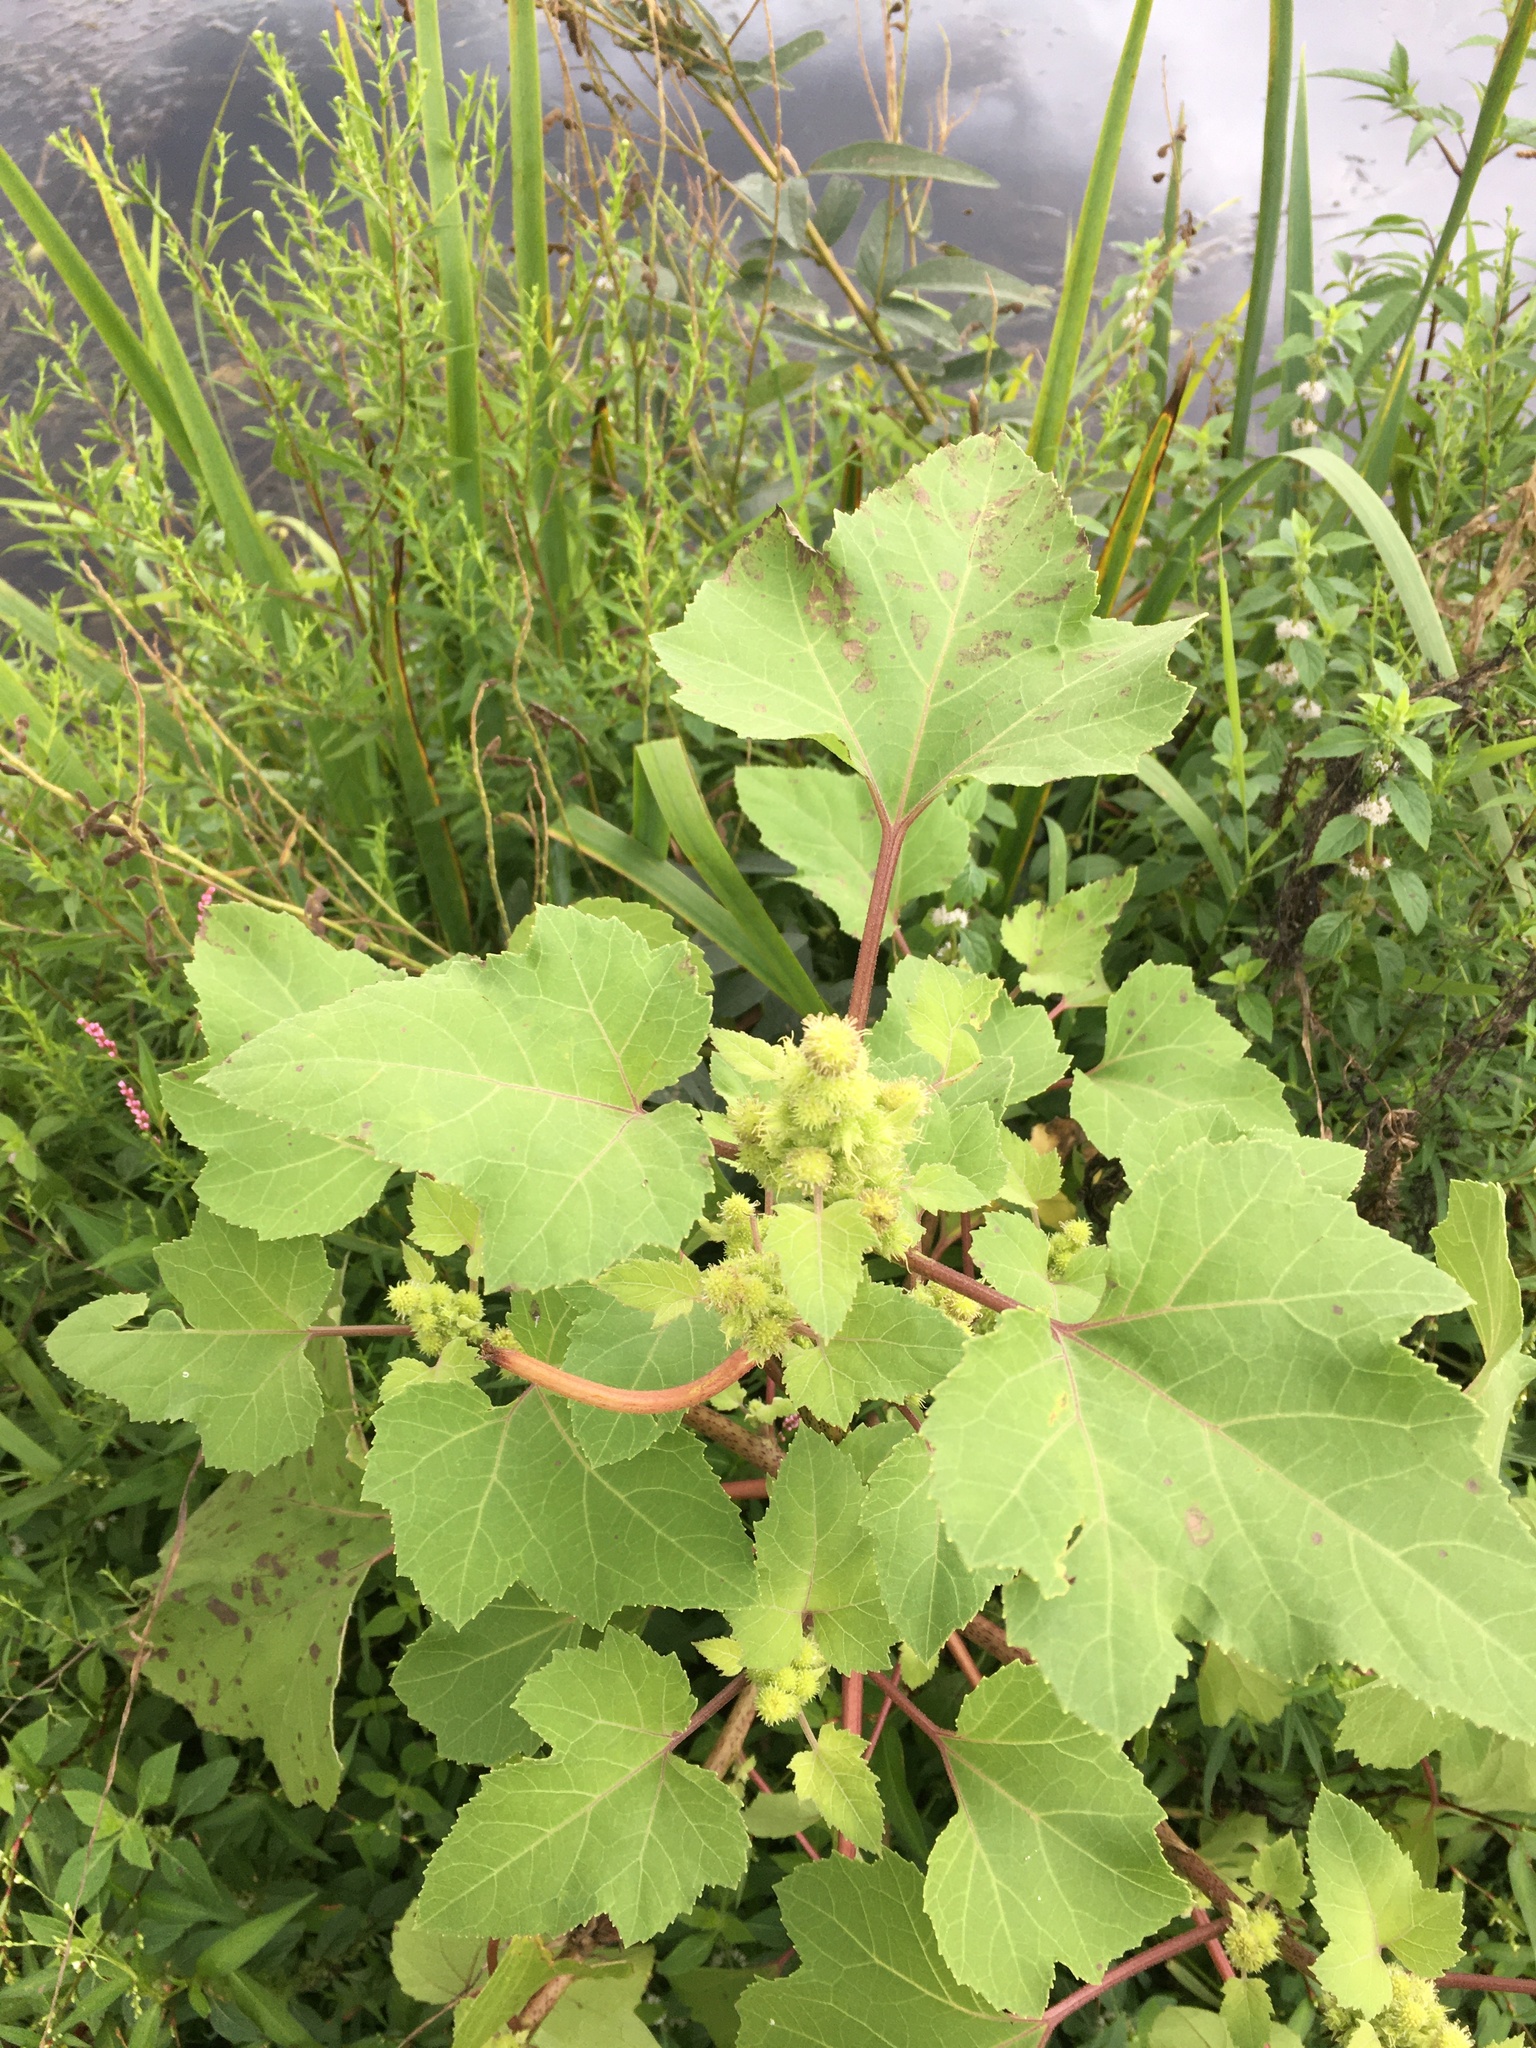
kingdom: Plantae
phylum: Tracheophyta
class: Magnoliopsida
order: Asterales
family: Asteraceae
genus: Xanthium
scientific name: Xanthium strumarium
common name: Rough cocklebur
